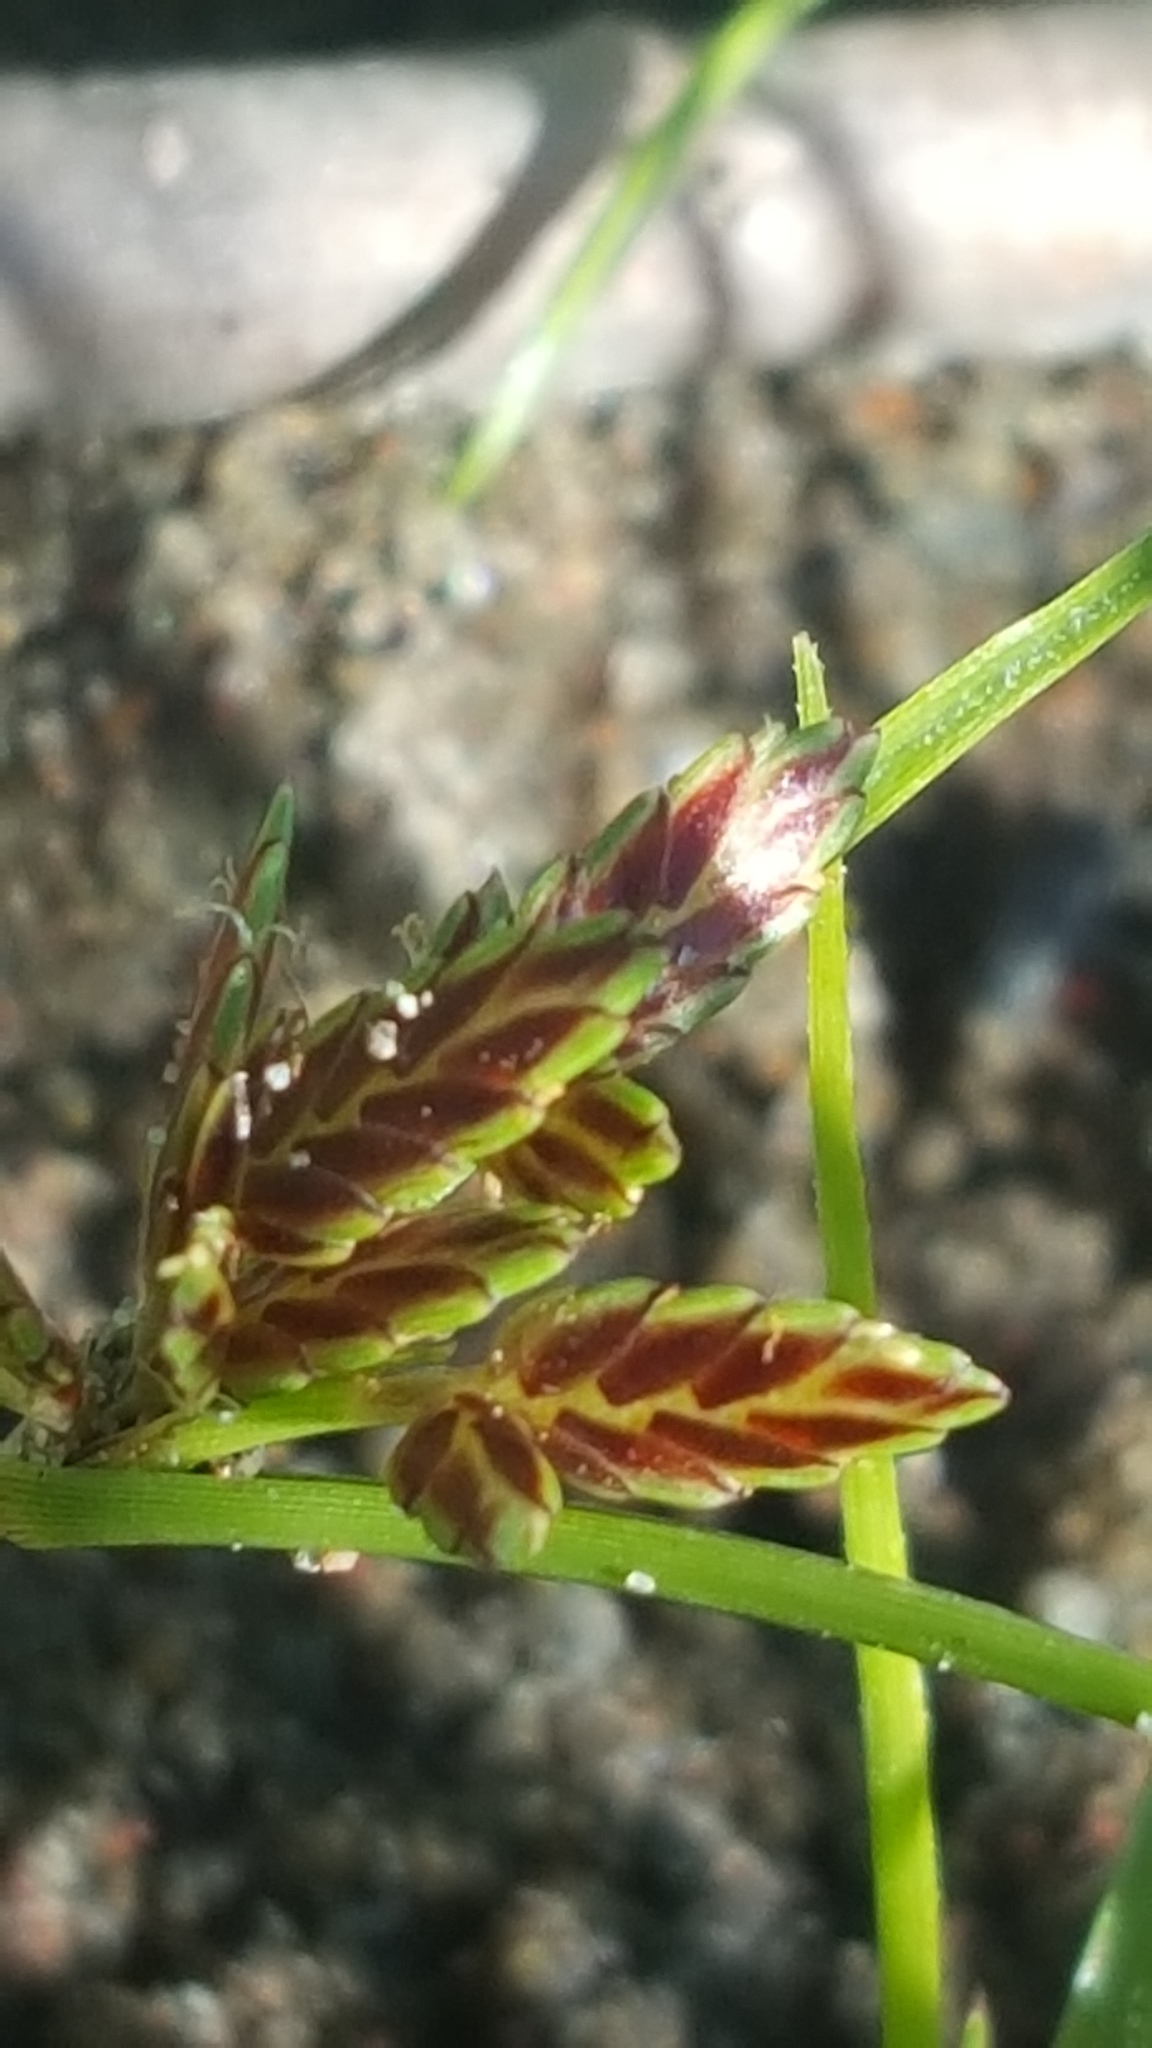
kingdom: Plantae
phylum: Tracheophyta
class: Liliopsida
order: Poales
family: Cyperaceae
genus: Cyperus
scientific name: Cyperus bipartitus
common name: Brook flatsedge
